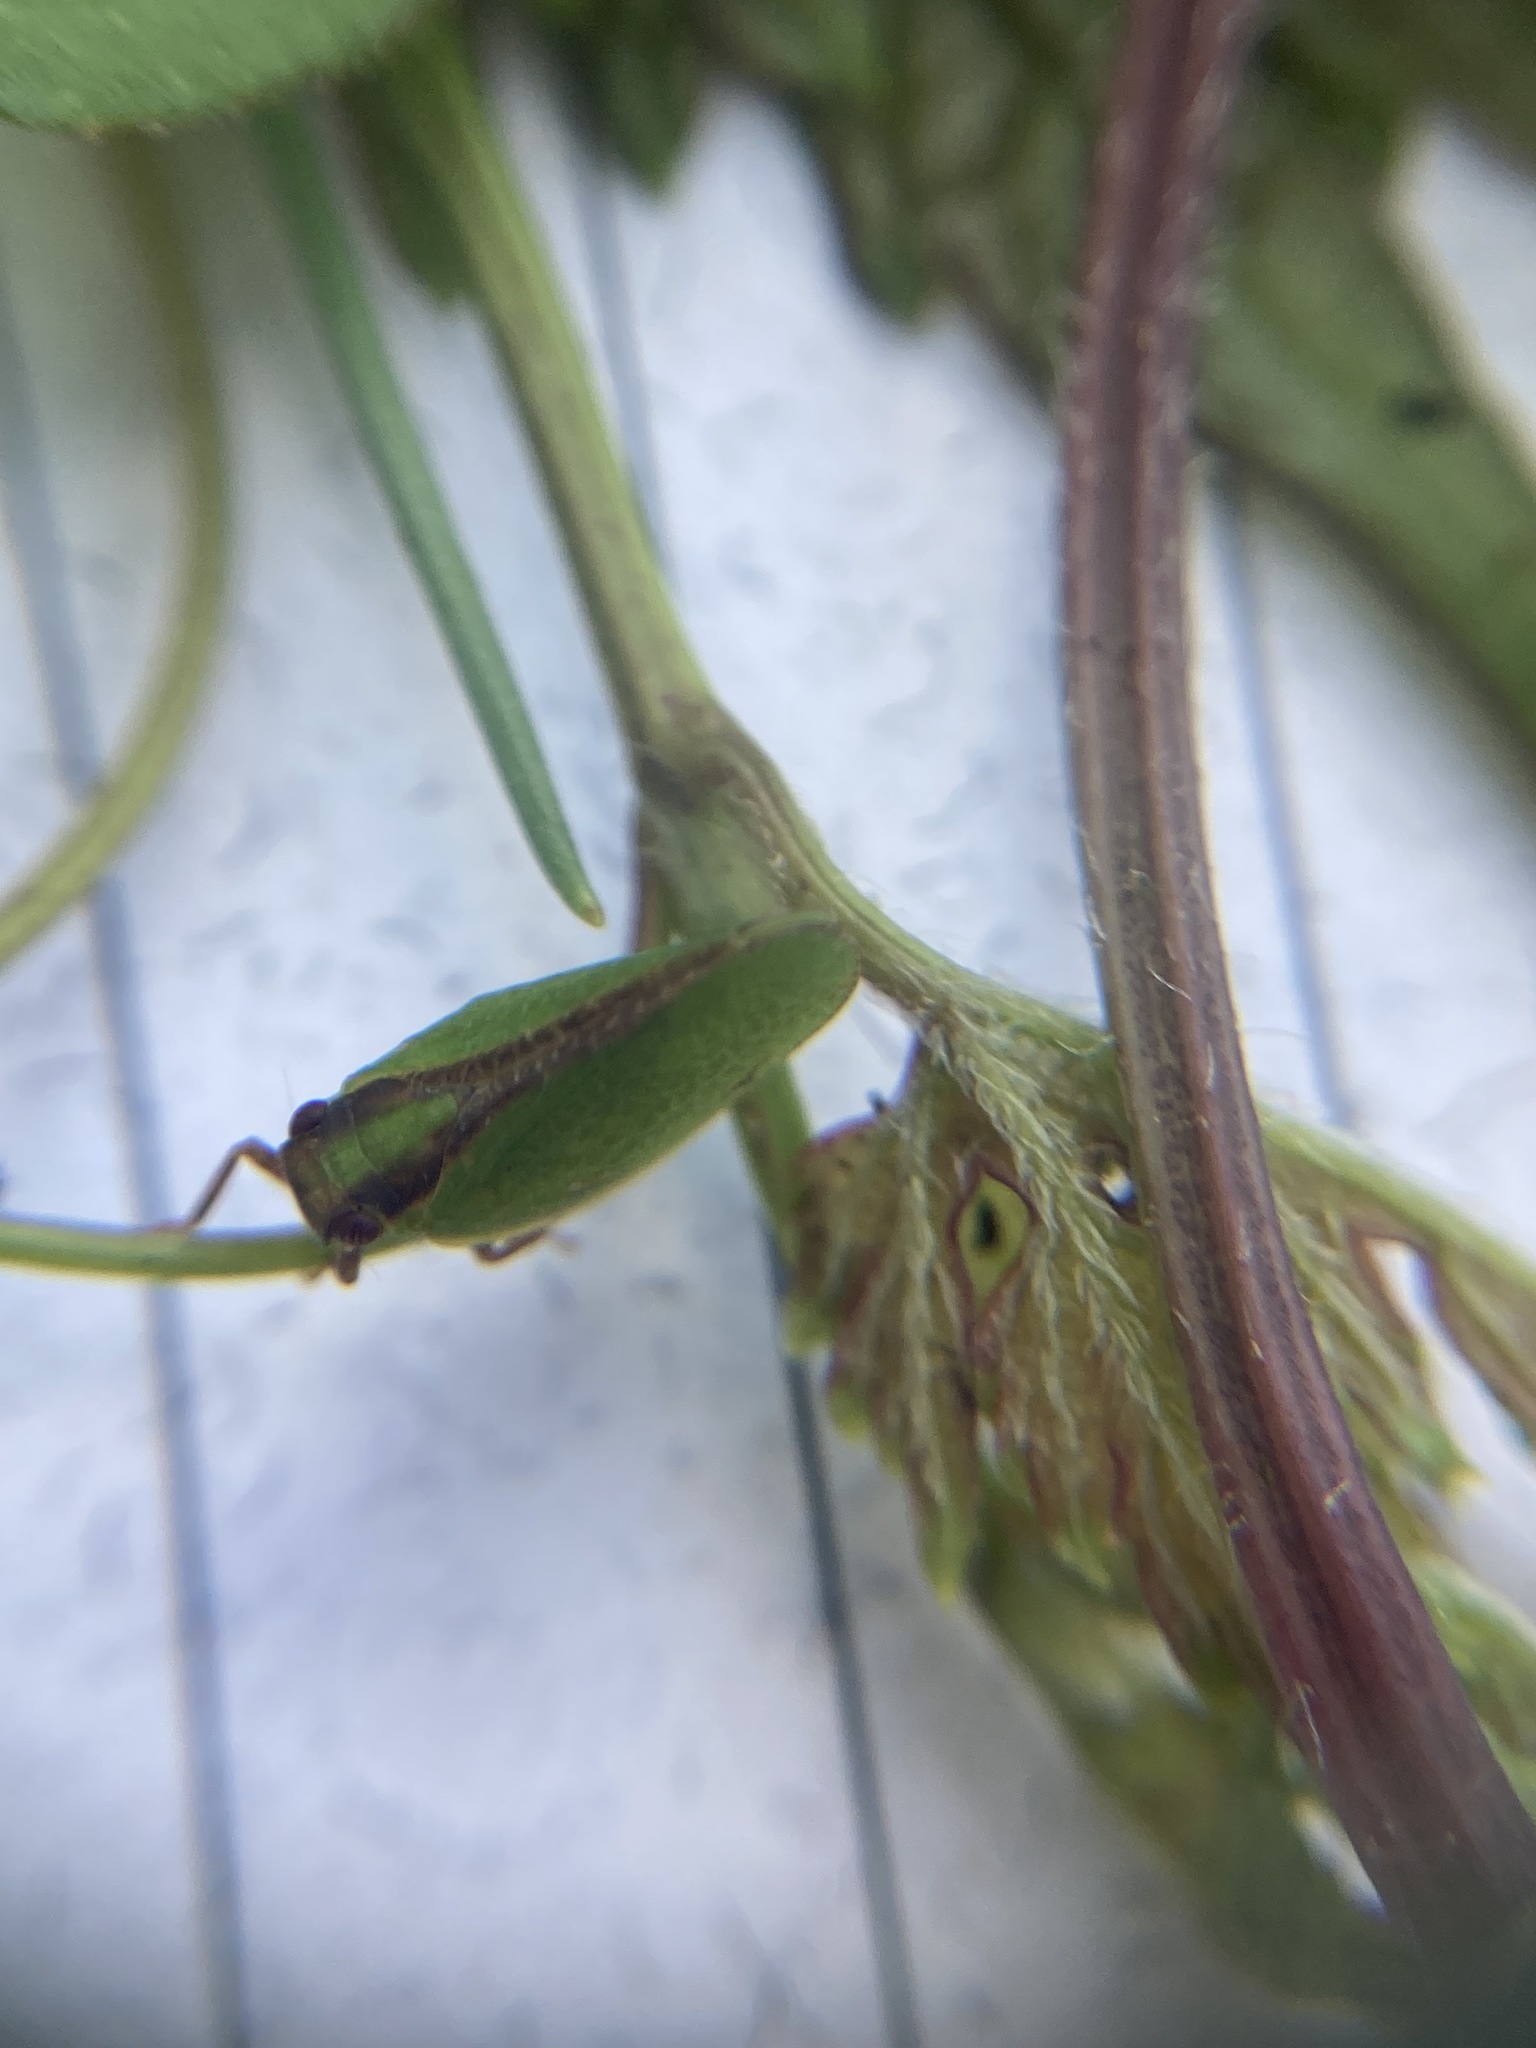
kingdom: Animalia
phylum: Arthropoda
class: Insecta
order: Hemiptera
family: Acanaloniidae
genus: Acanalonia
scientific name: Acanalonia bivittata
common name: Two-striped planthopper
